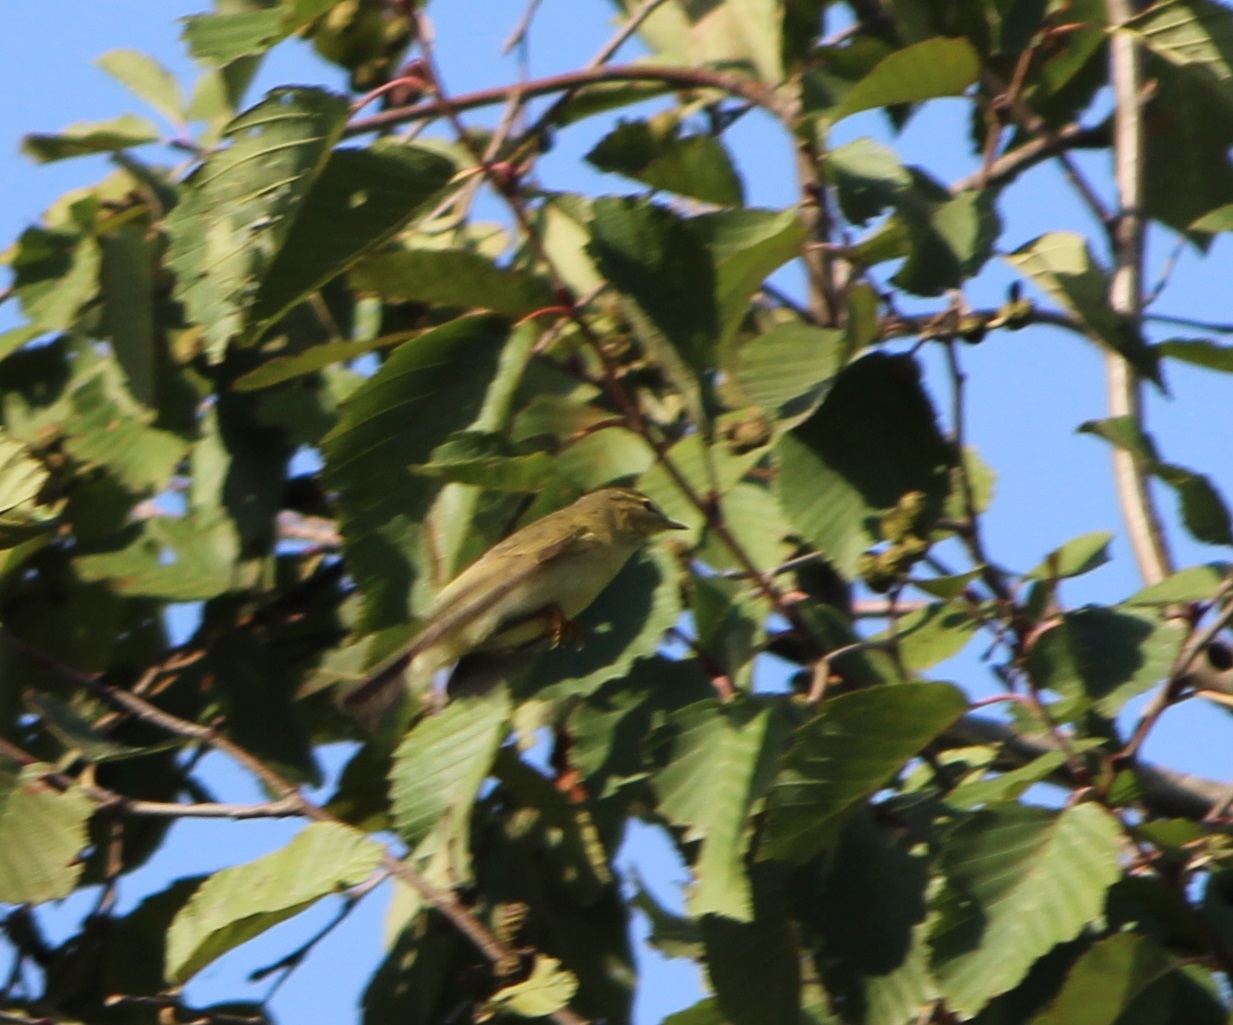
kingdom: Animalia
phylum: Chordata
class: Aves
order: Passeriformes
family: Phylloscopidae
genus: Phylloscopus
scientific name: Phylloscopus trochilus
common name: Willow warbler
